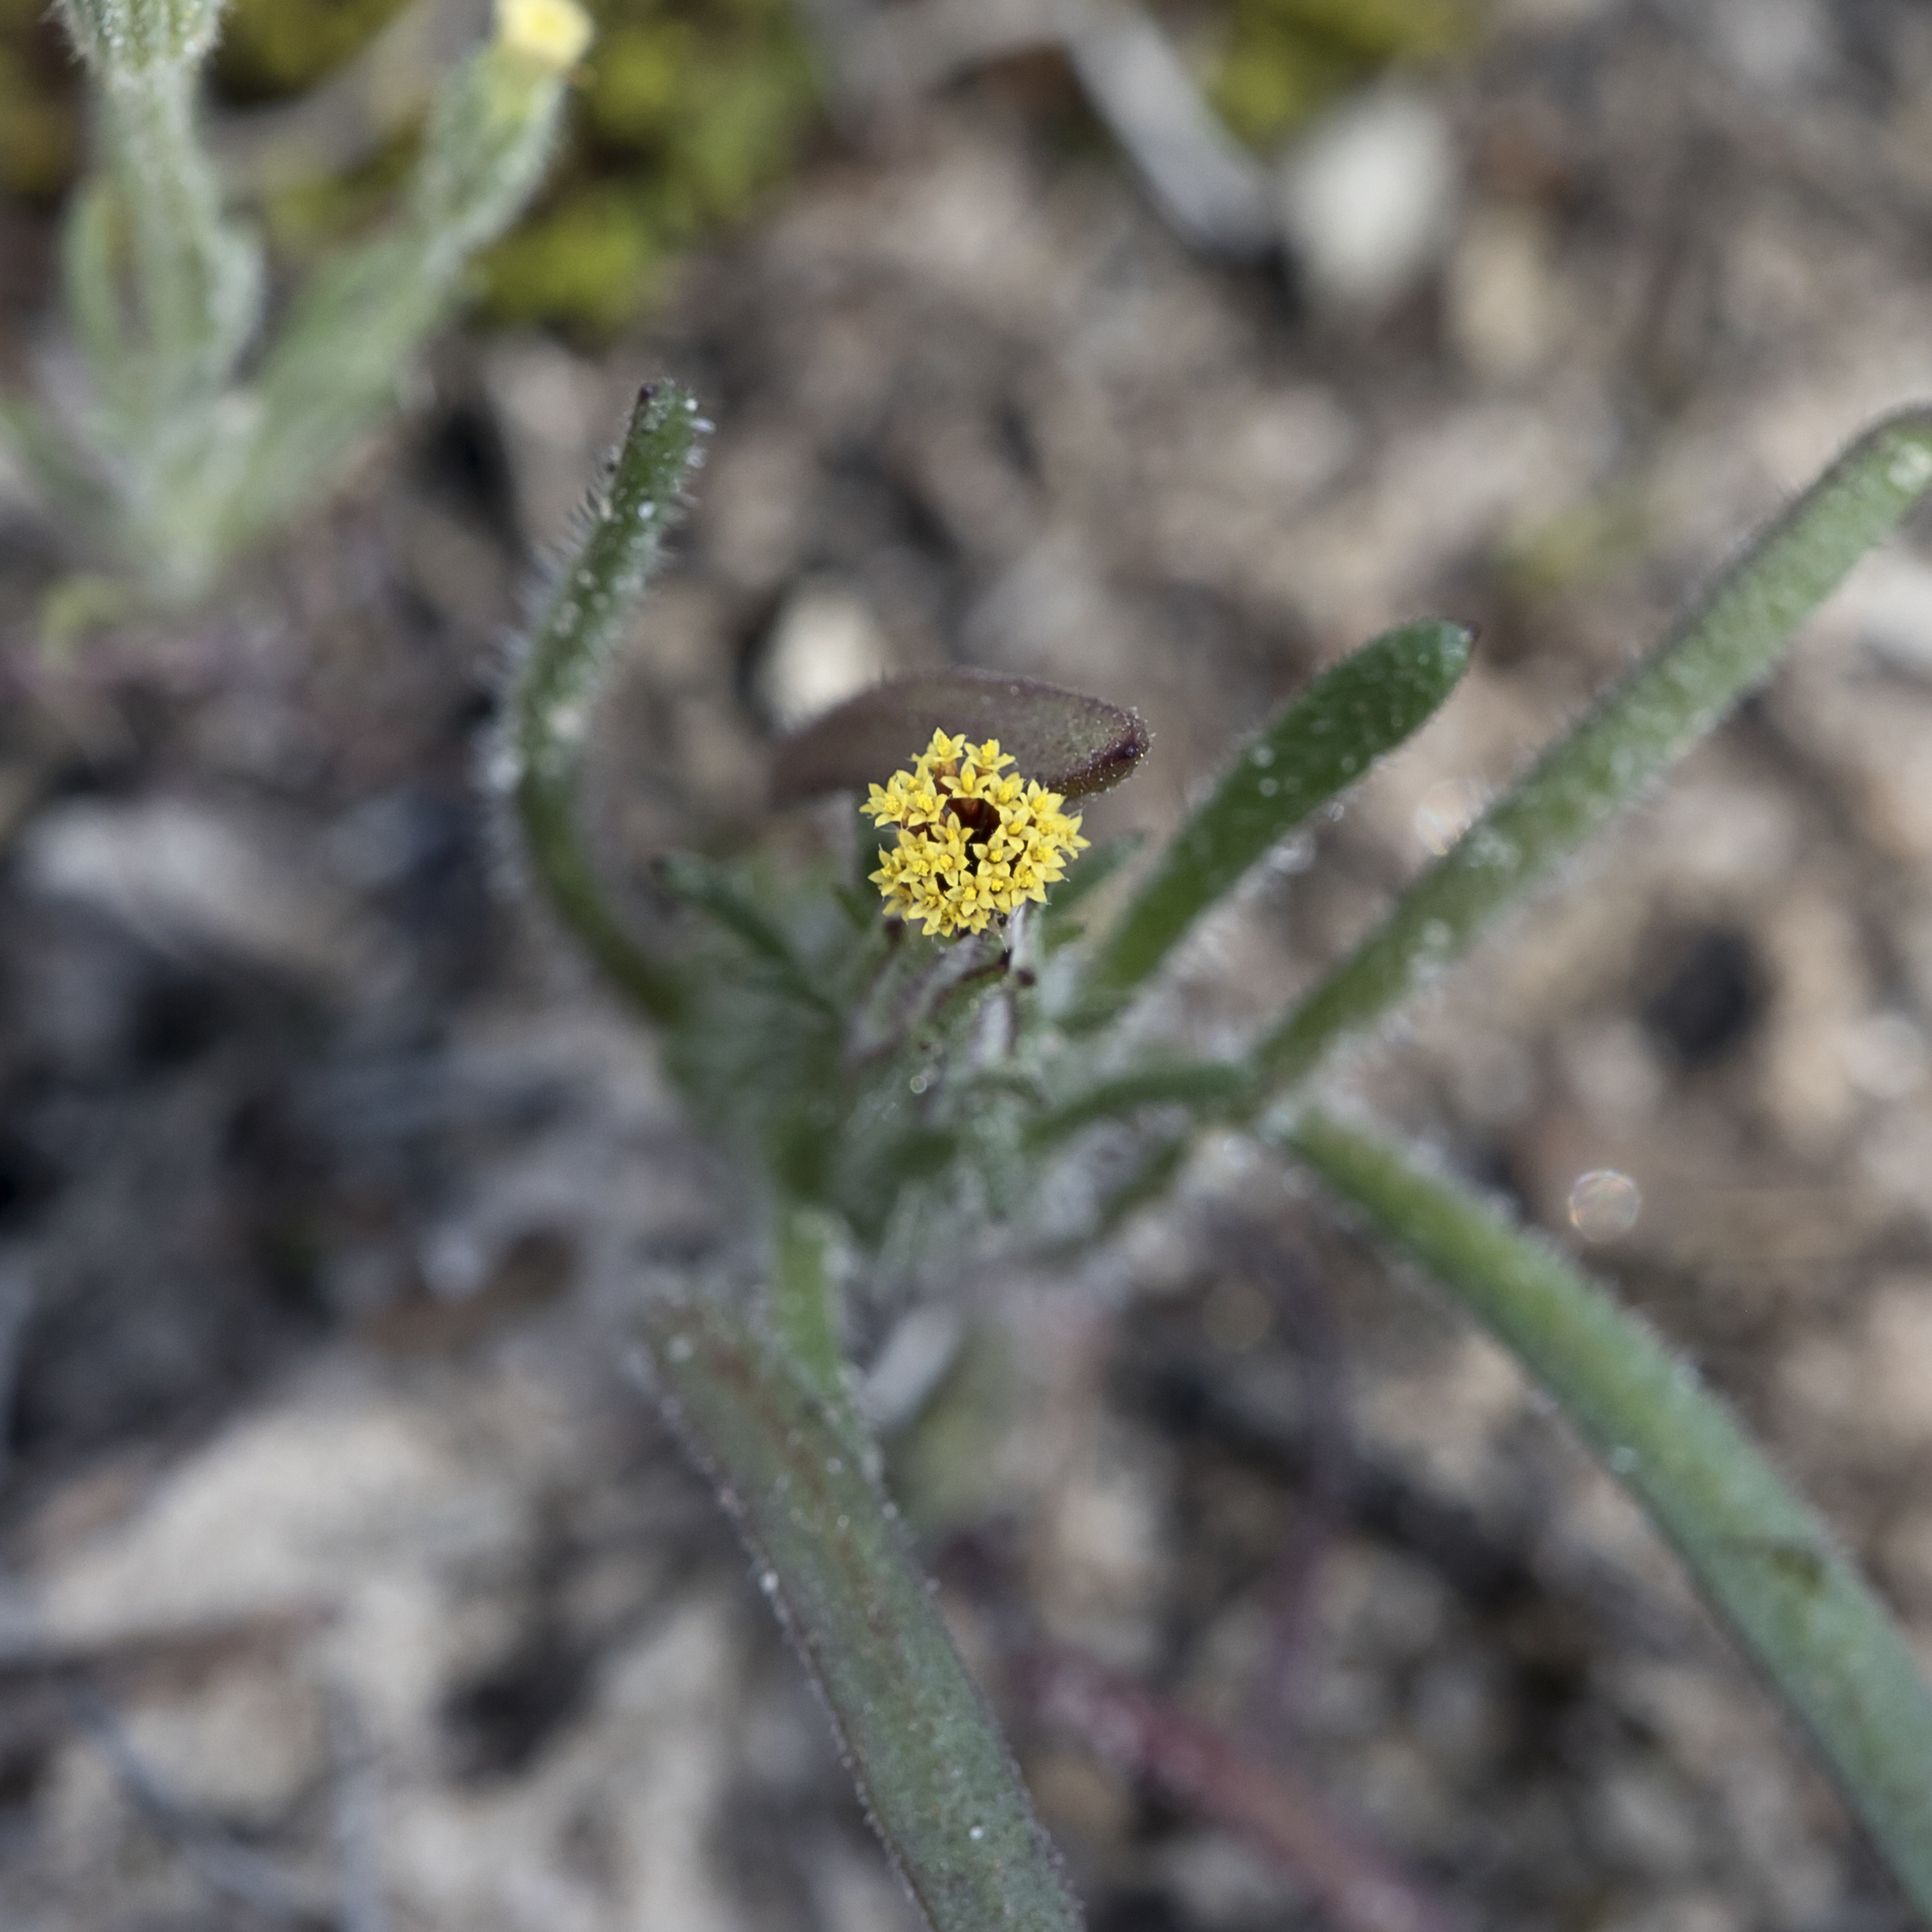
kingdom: Plantae
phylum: Tracheophyta
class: Magnoliopsida
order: Asterales
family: Asteraceae
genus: Podotheca
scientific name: Podotheca angustifolia
